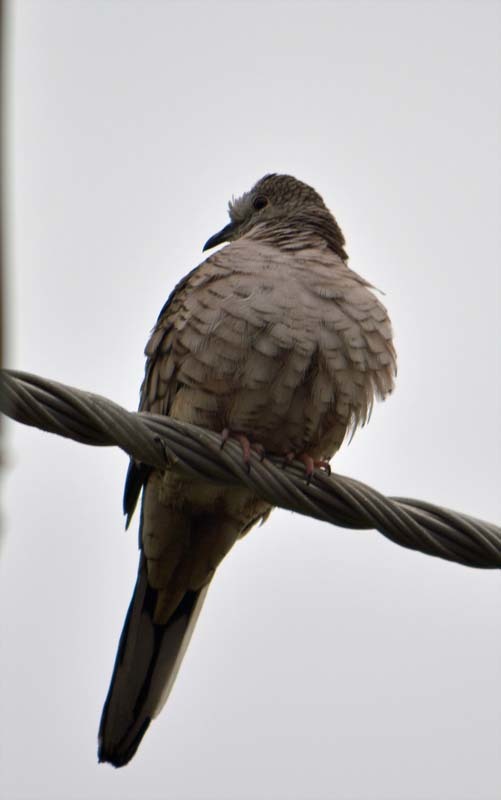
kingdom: Animalia
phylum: Chordata
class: Aves
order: Columbiformes
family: Columbidae
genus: Columbina
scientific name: Columbina inca
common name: Inca dove
